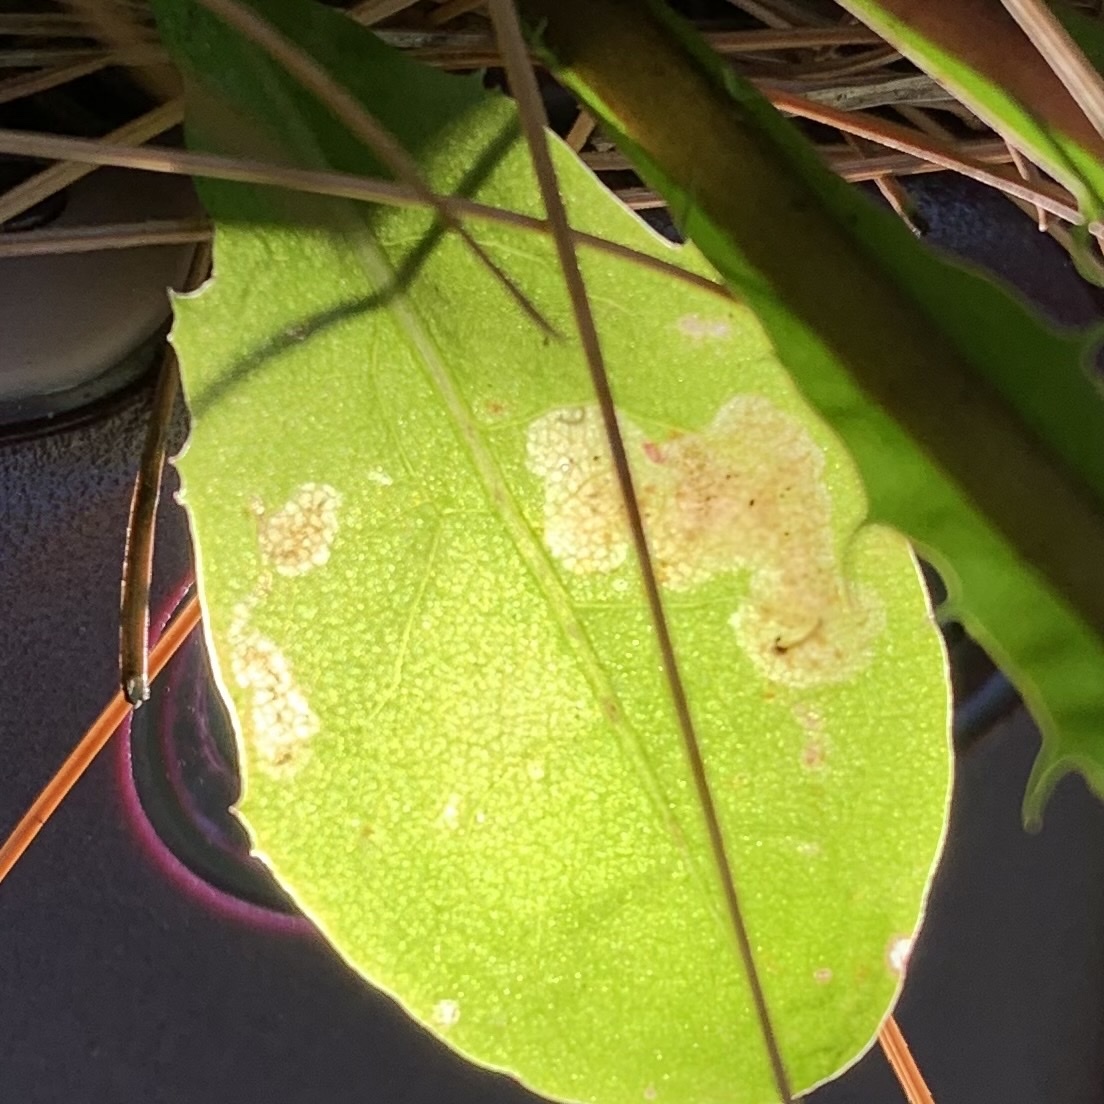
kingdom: Animalia
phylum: Arthropoda
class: Insecta
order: Diptera
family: Agromyzidae
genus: Liriomyza
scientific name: Liriomyza taraxaci
